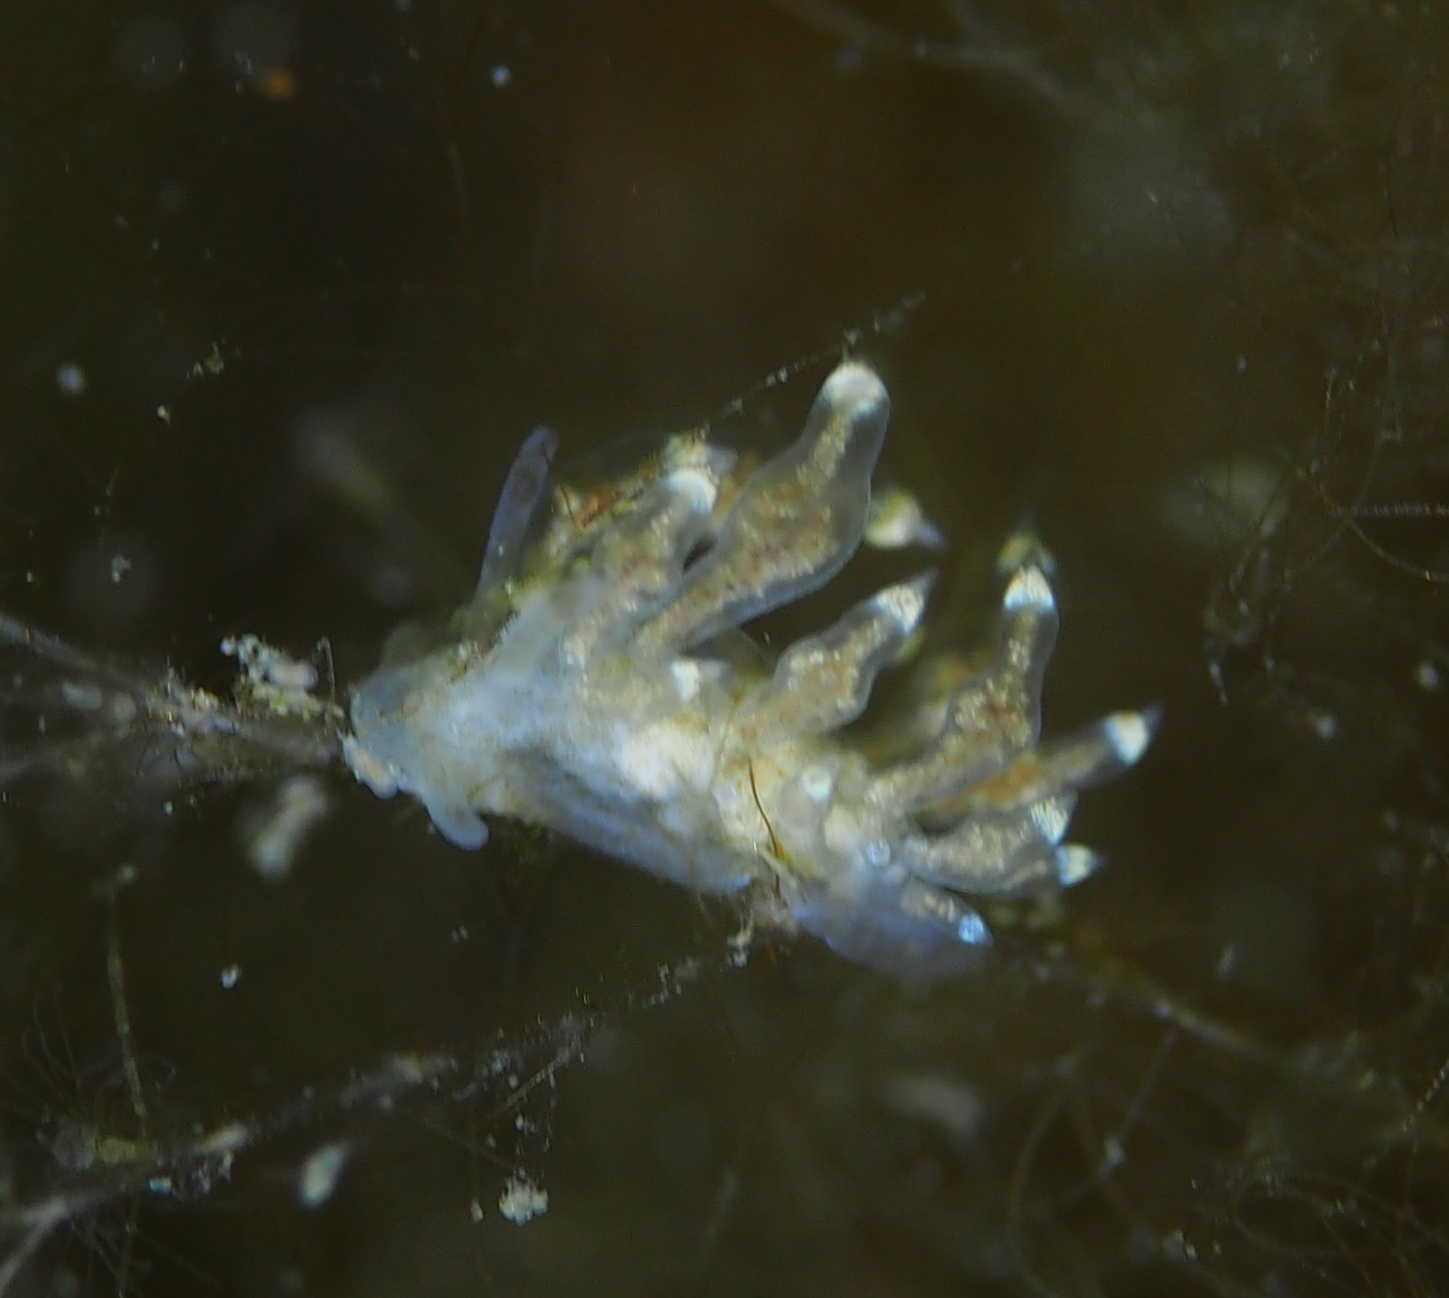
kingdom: Animalia
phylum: Mollusca
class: Gastropoda
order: Nudibranchia
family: Eubranchidae
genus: Eubranchus
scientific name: Eubranchus exiguus
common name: Balloon aeolis
